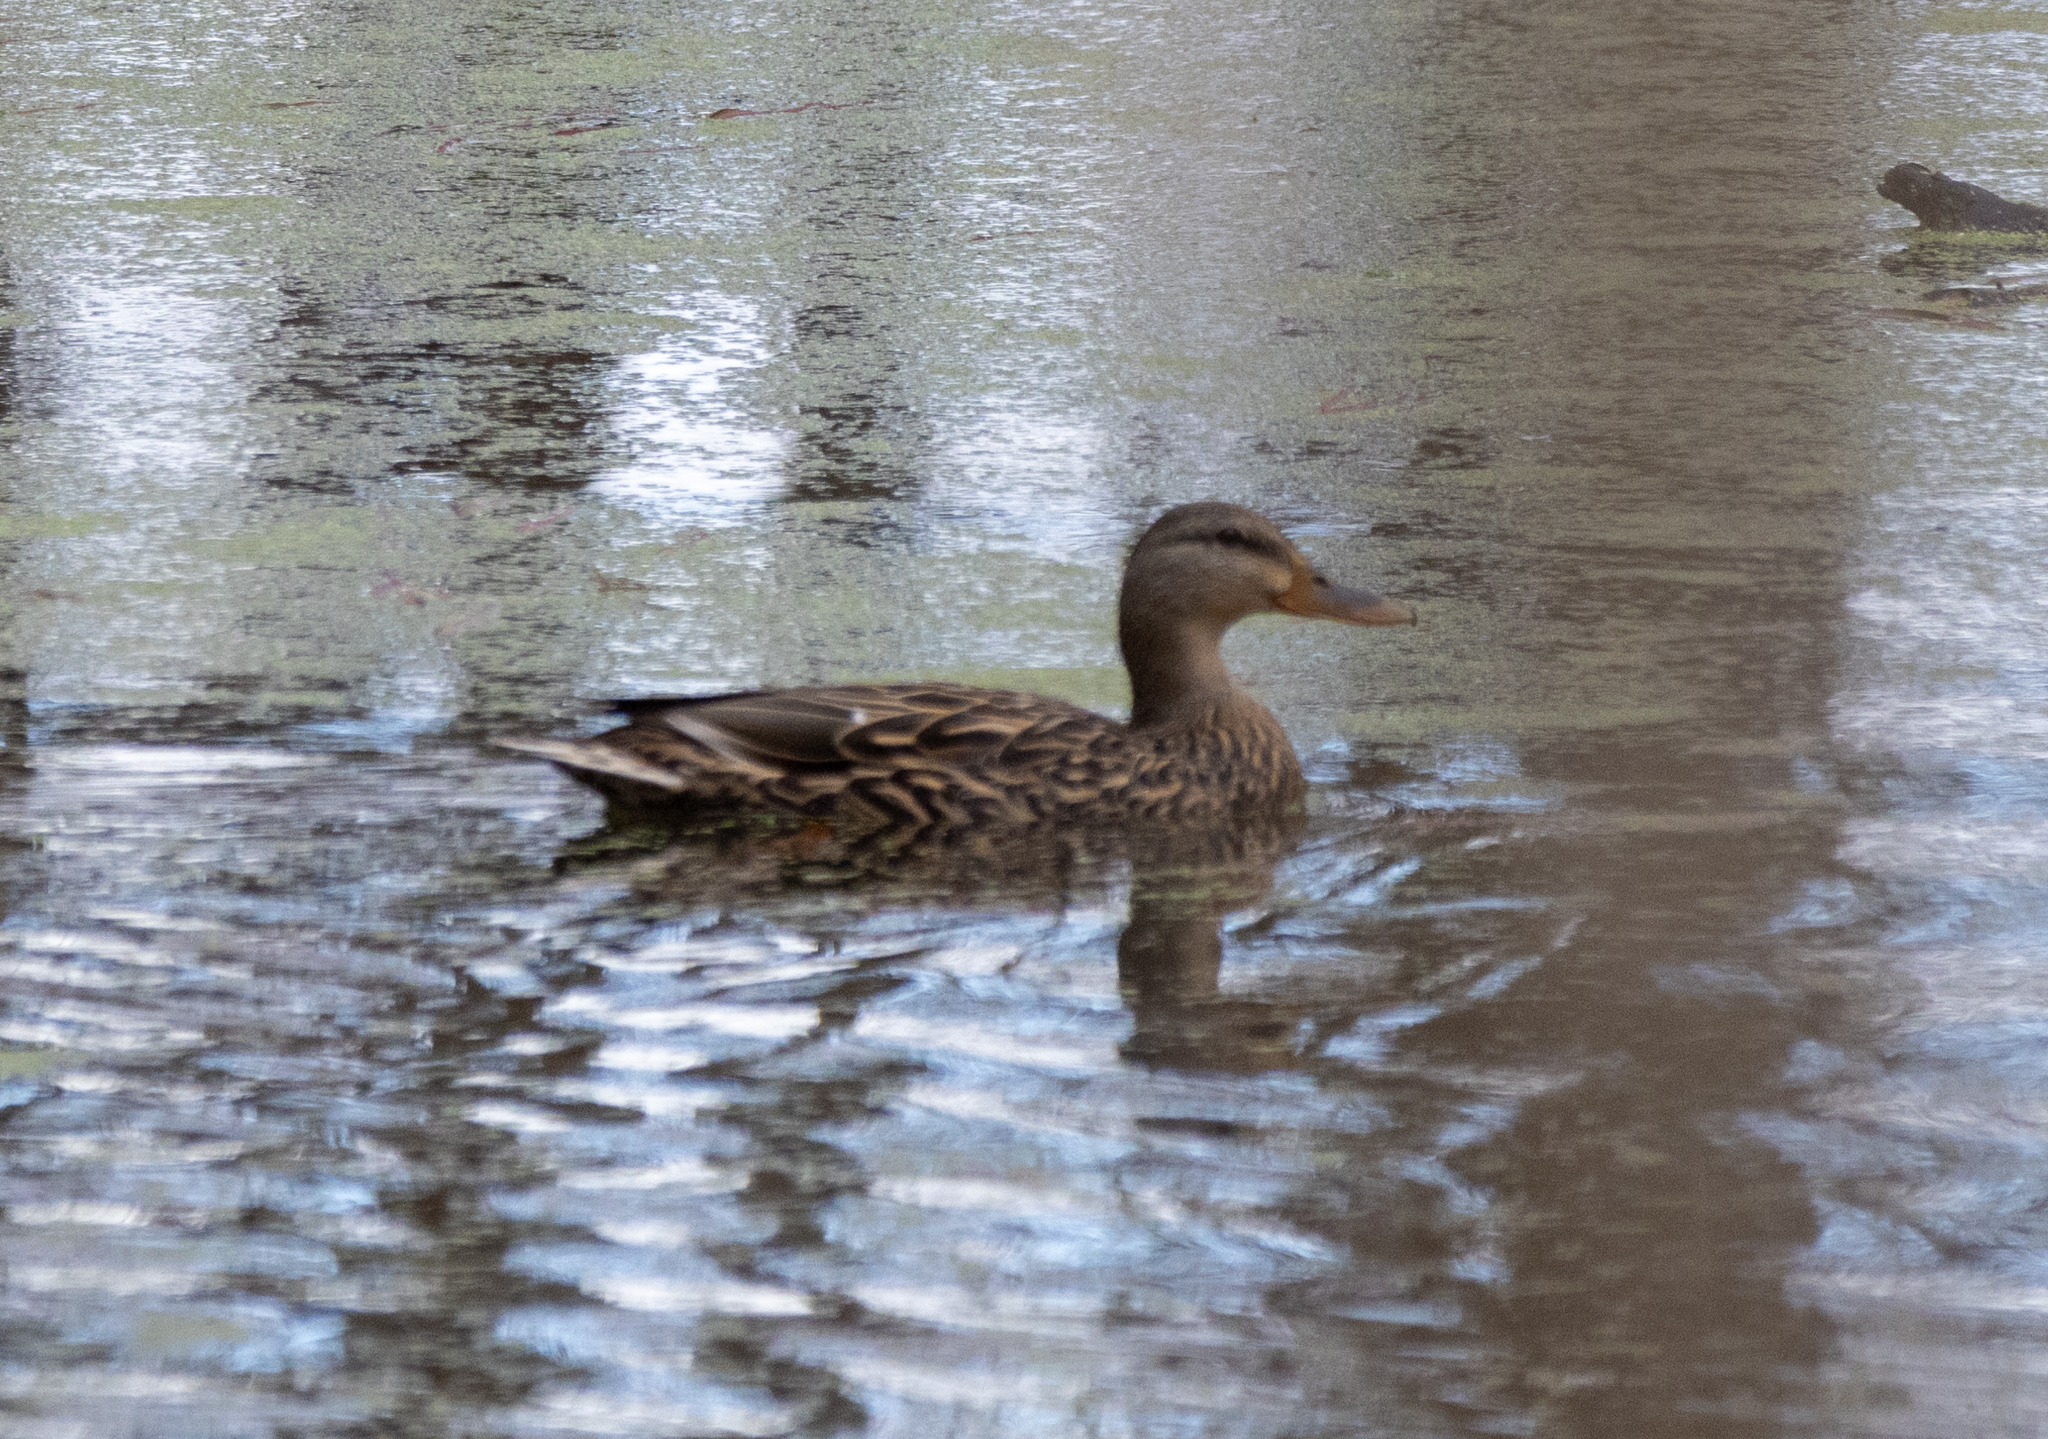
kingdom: Animalia
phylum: Chordata
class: Aves
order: Anseriformes
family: Anatidae
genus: Anas
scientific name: Anas platyrhynchos
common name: Mallard
